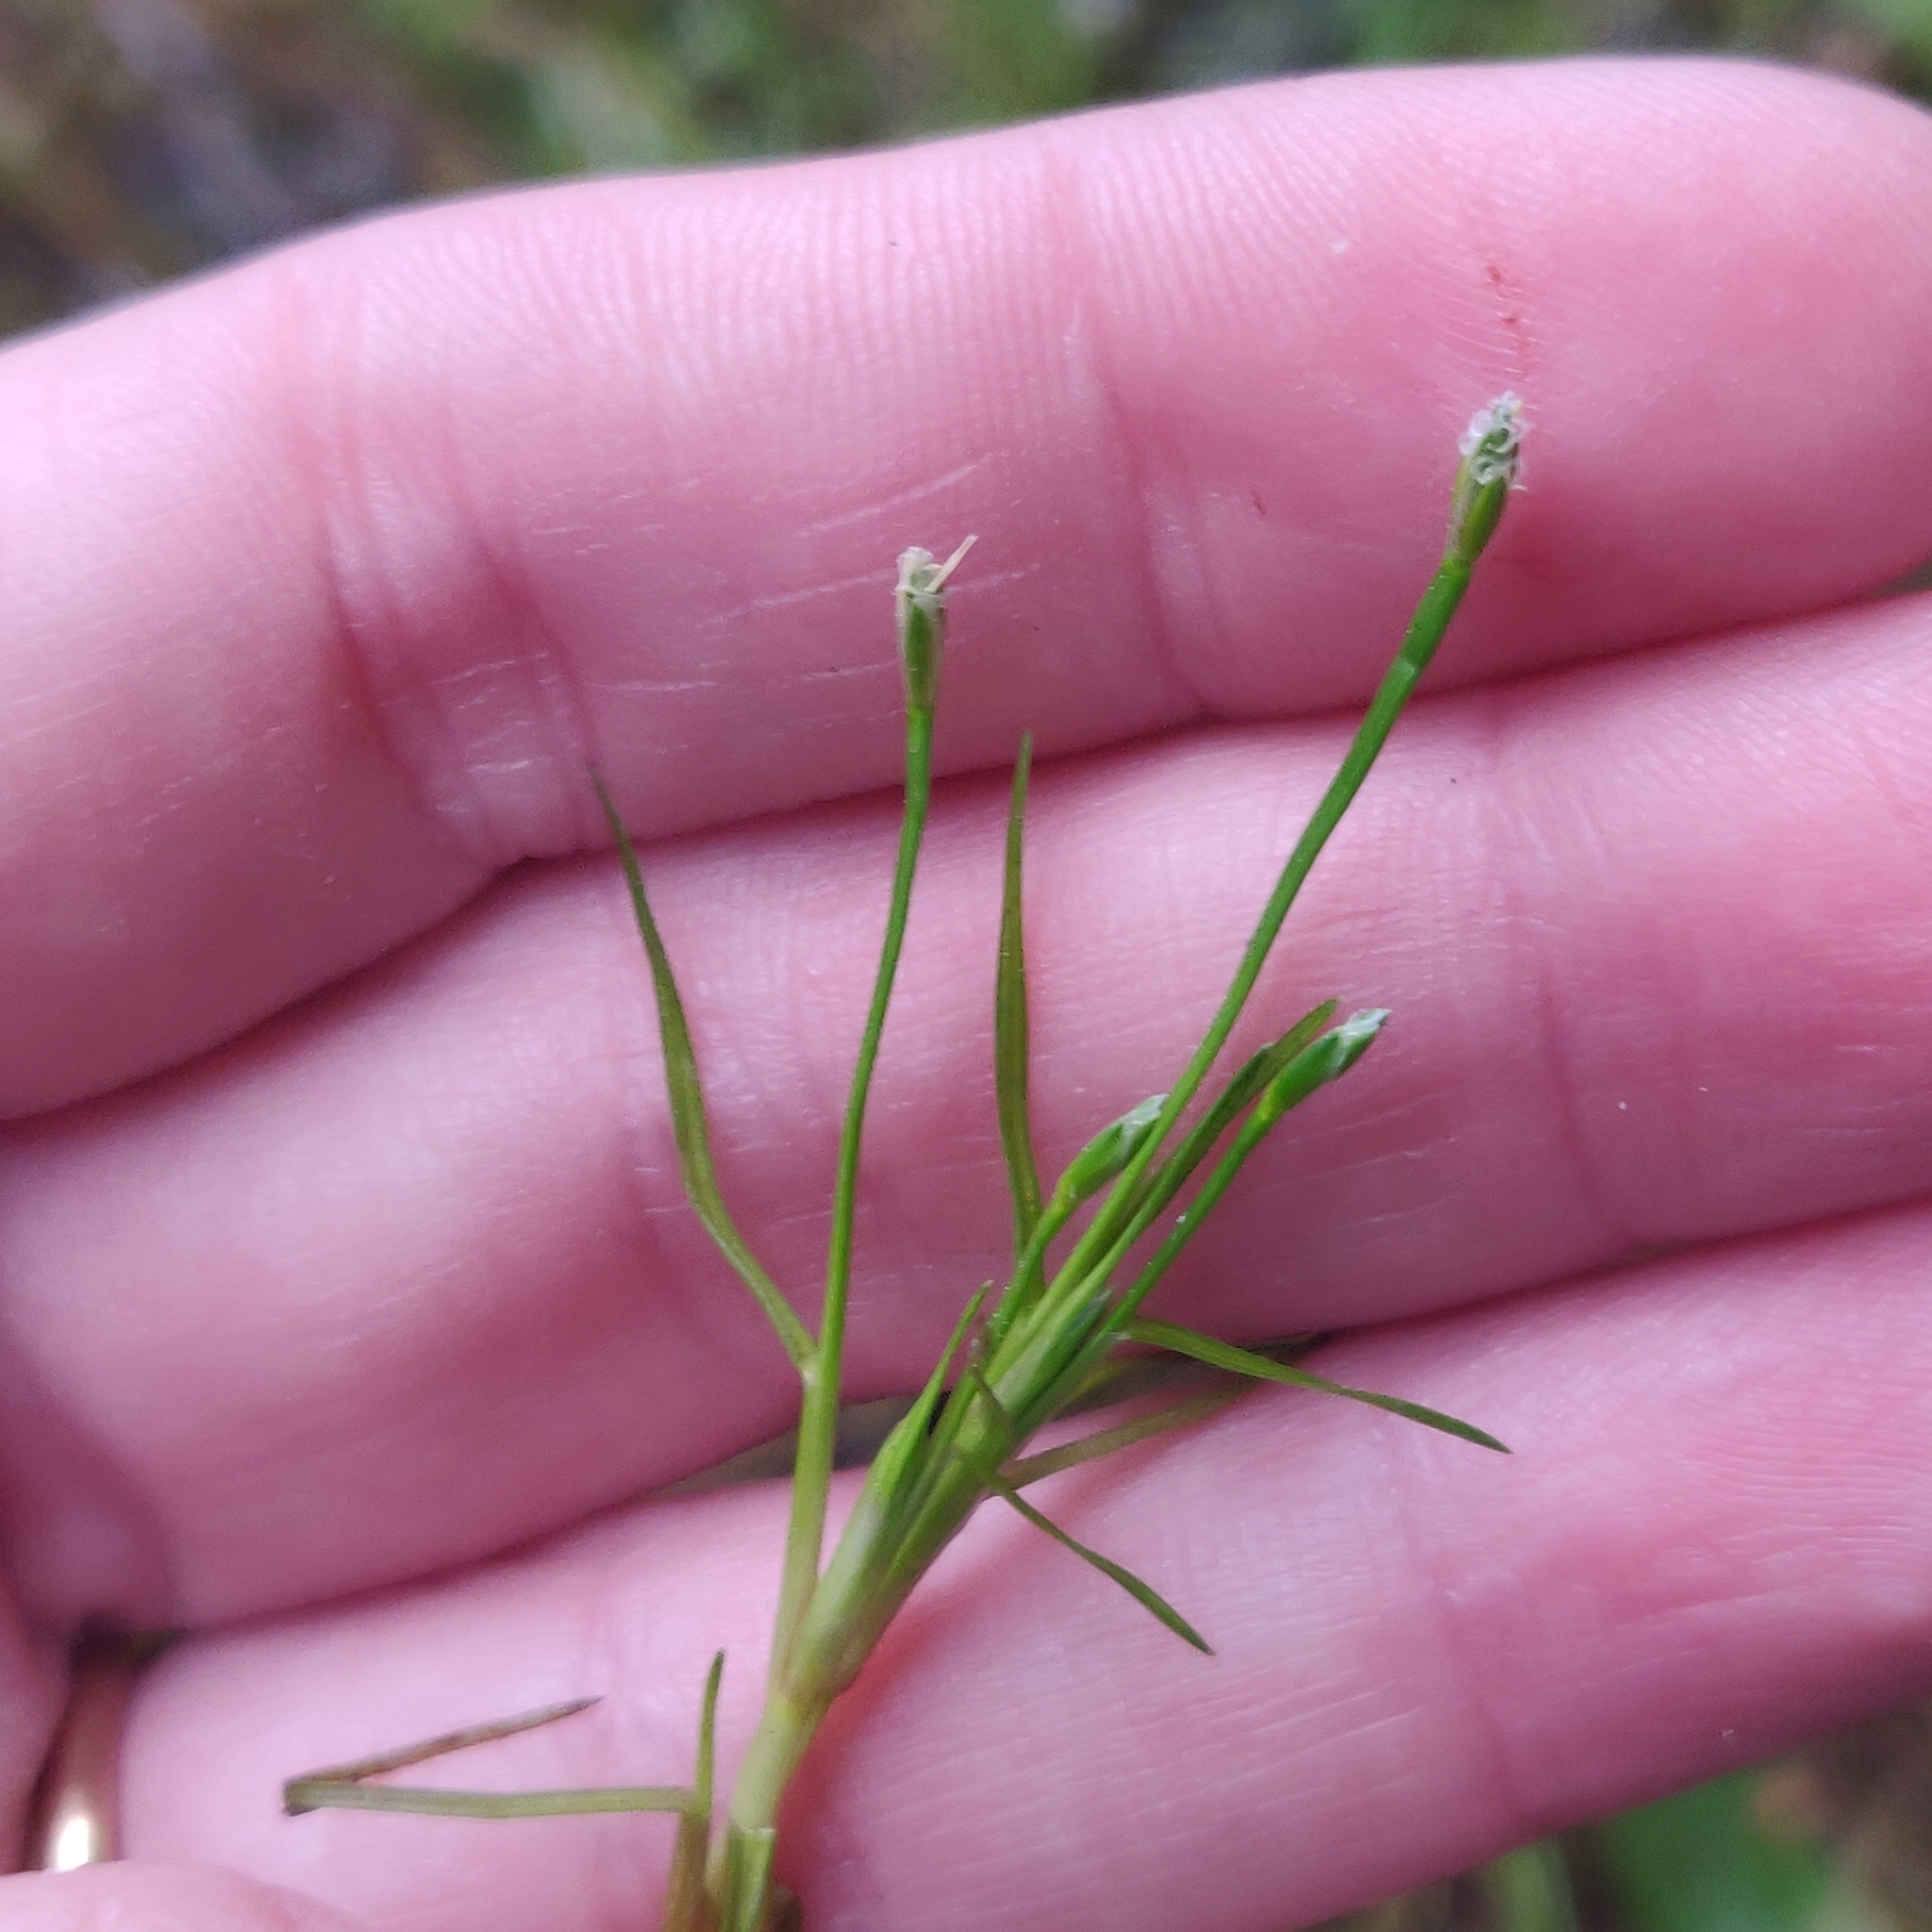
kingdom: Plantae
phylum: Tracheophyta
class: Liliopsida
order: Poales
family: Cyperaceae
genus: Isolepis
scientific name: Isolepis fluitans
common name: Floating club-rush
